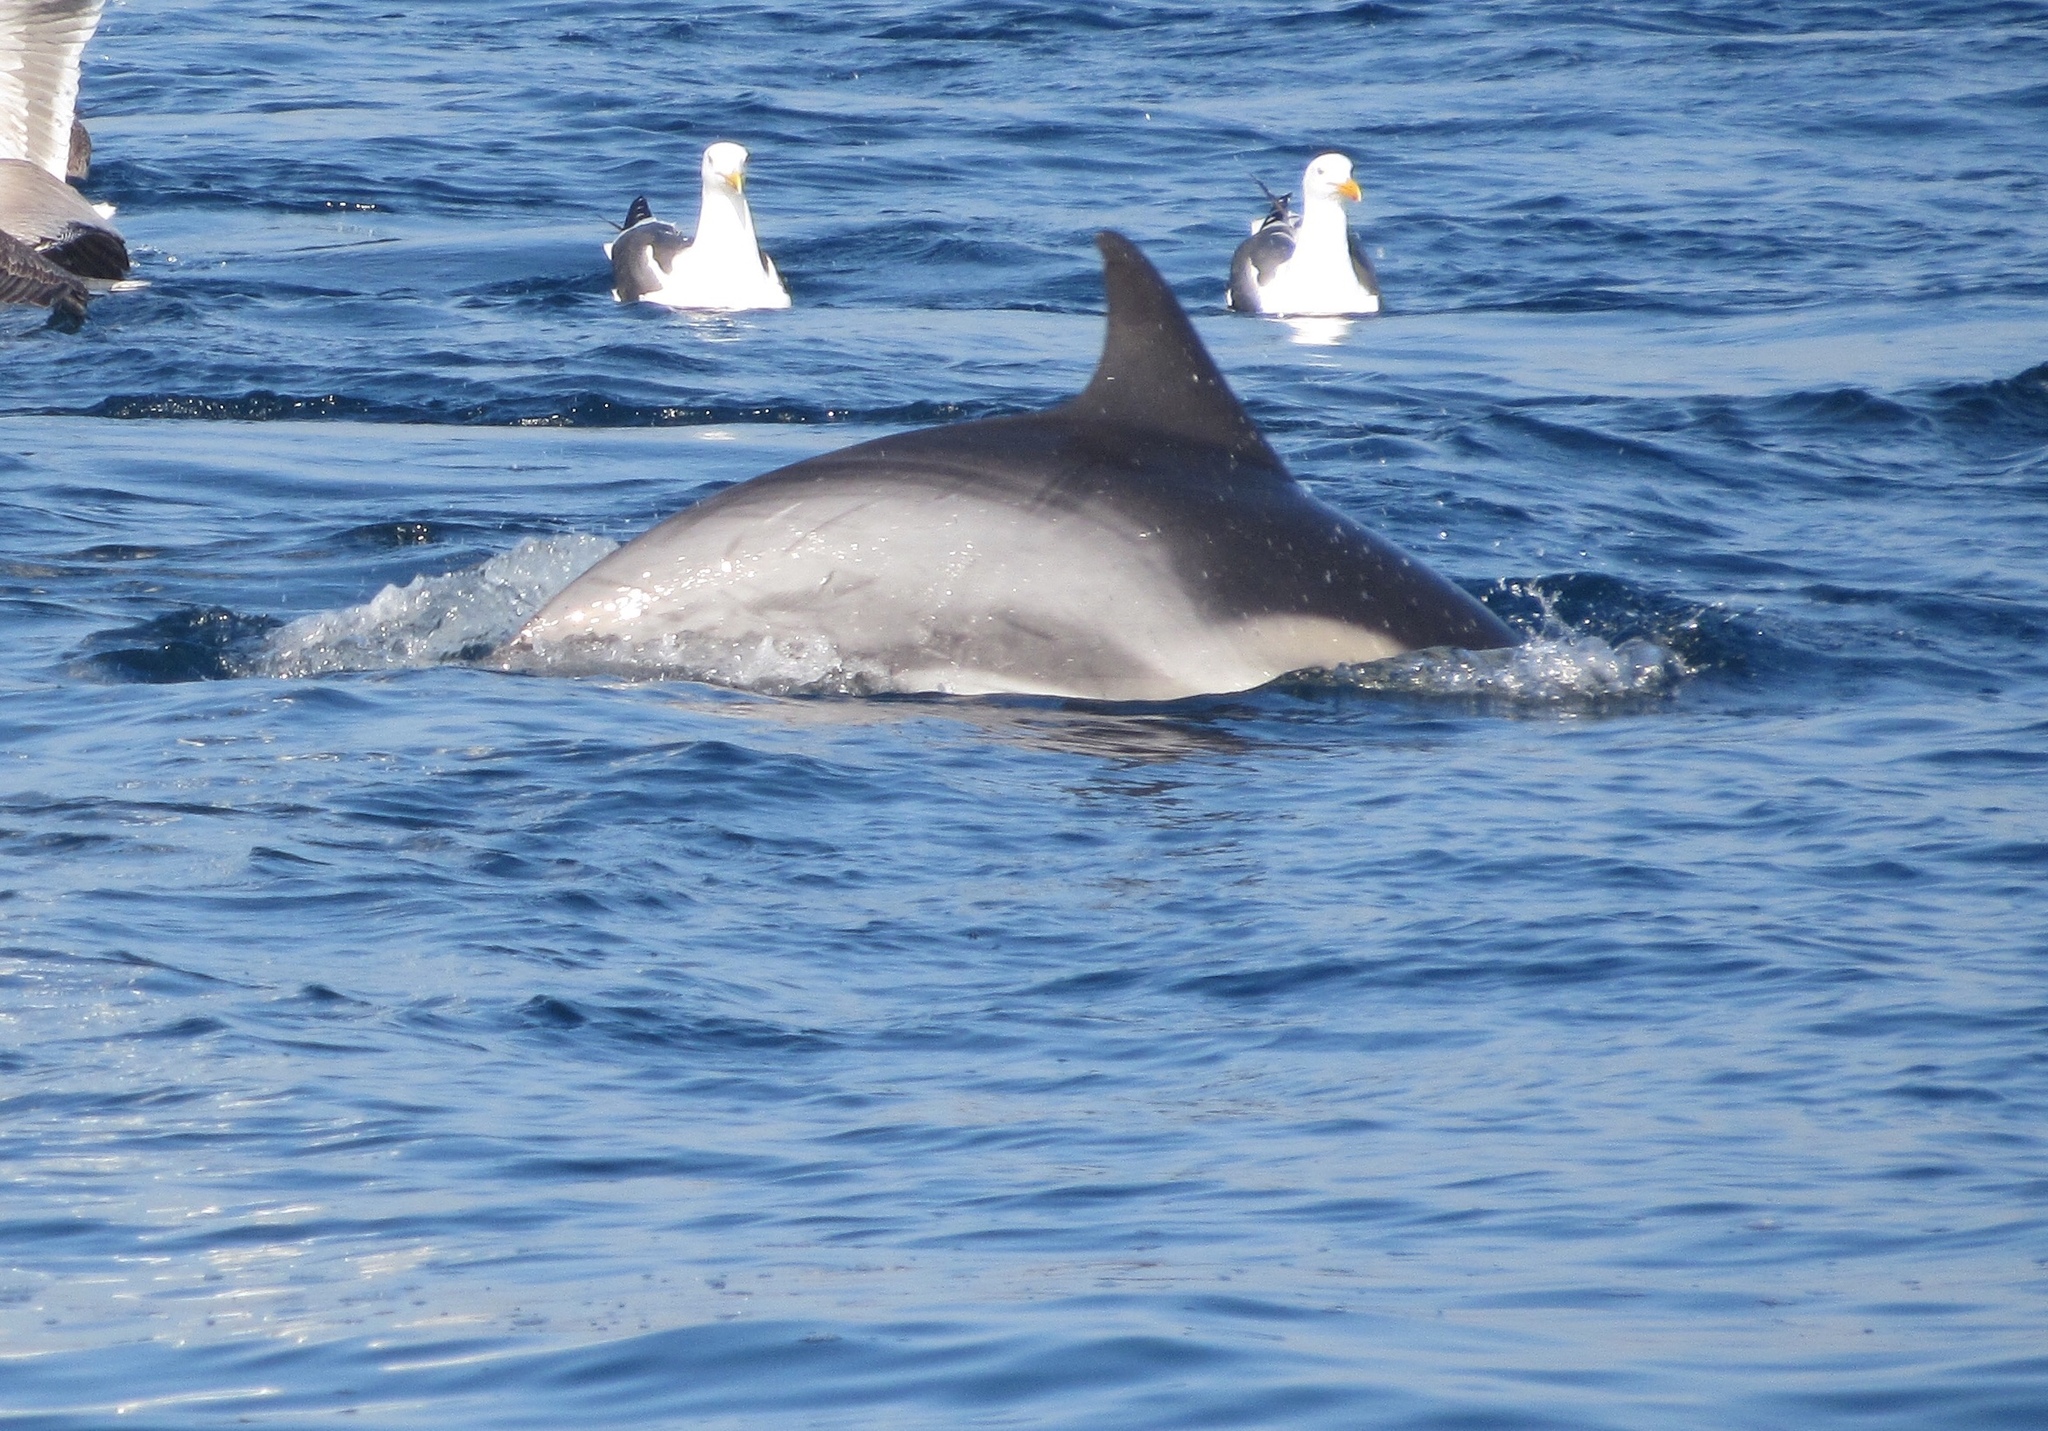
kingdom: Animalia
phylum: Chordata
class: Mammalia
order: Cetacea
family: Delphinidae
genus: Delphinus
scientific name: Delphinus
